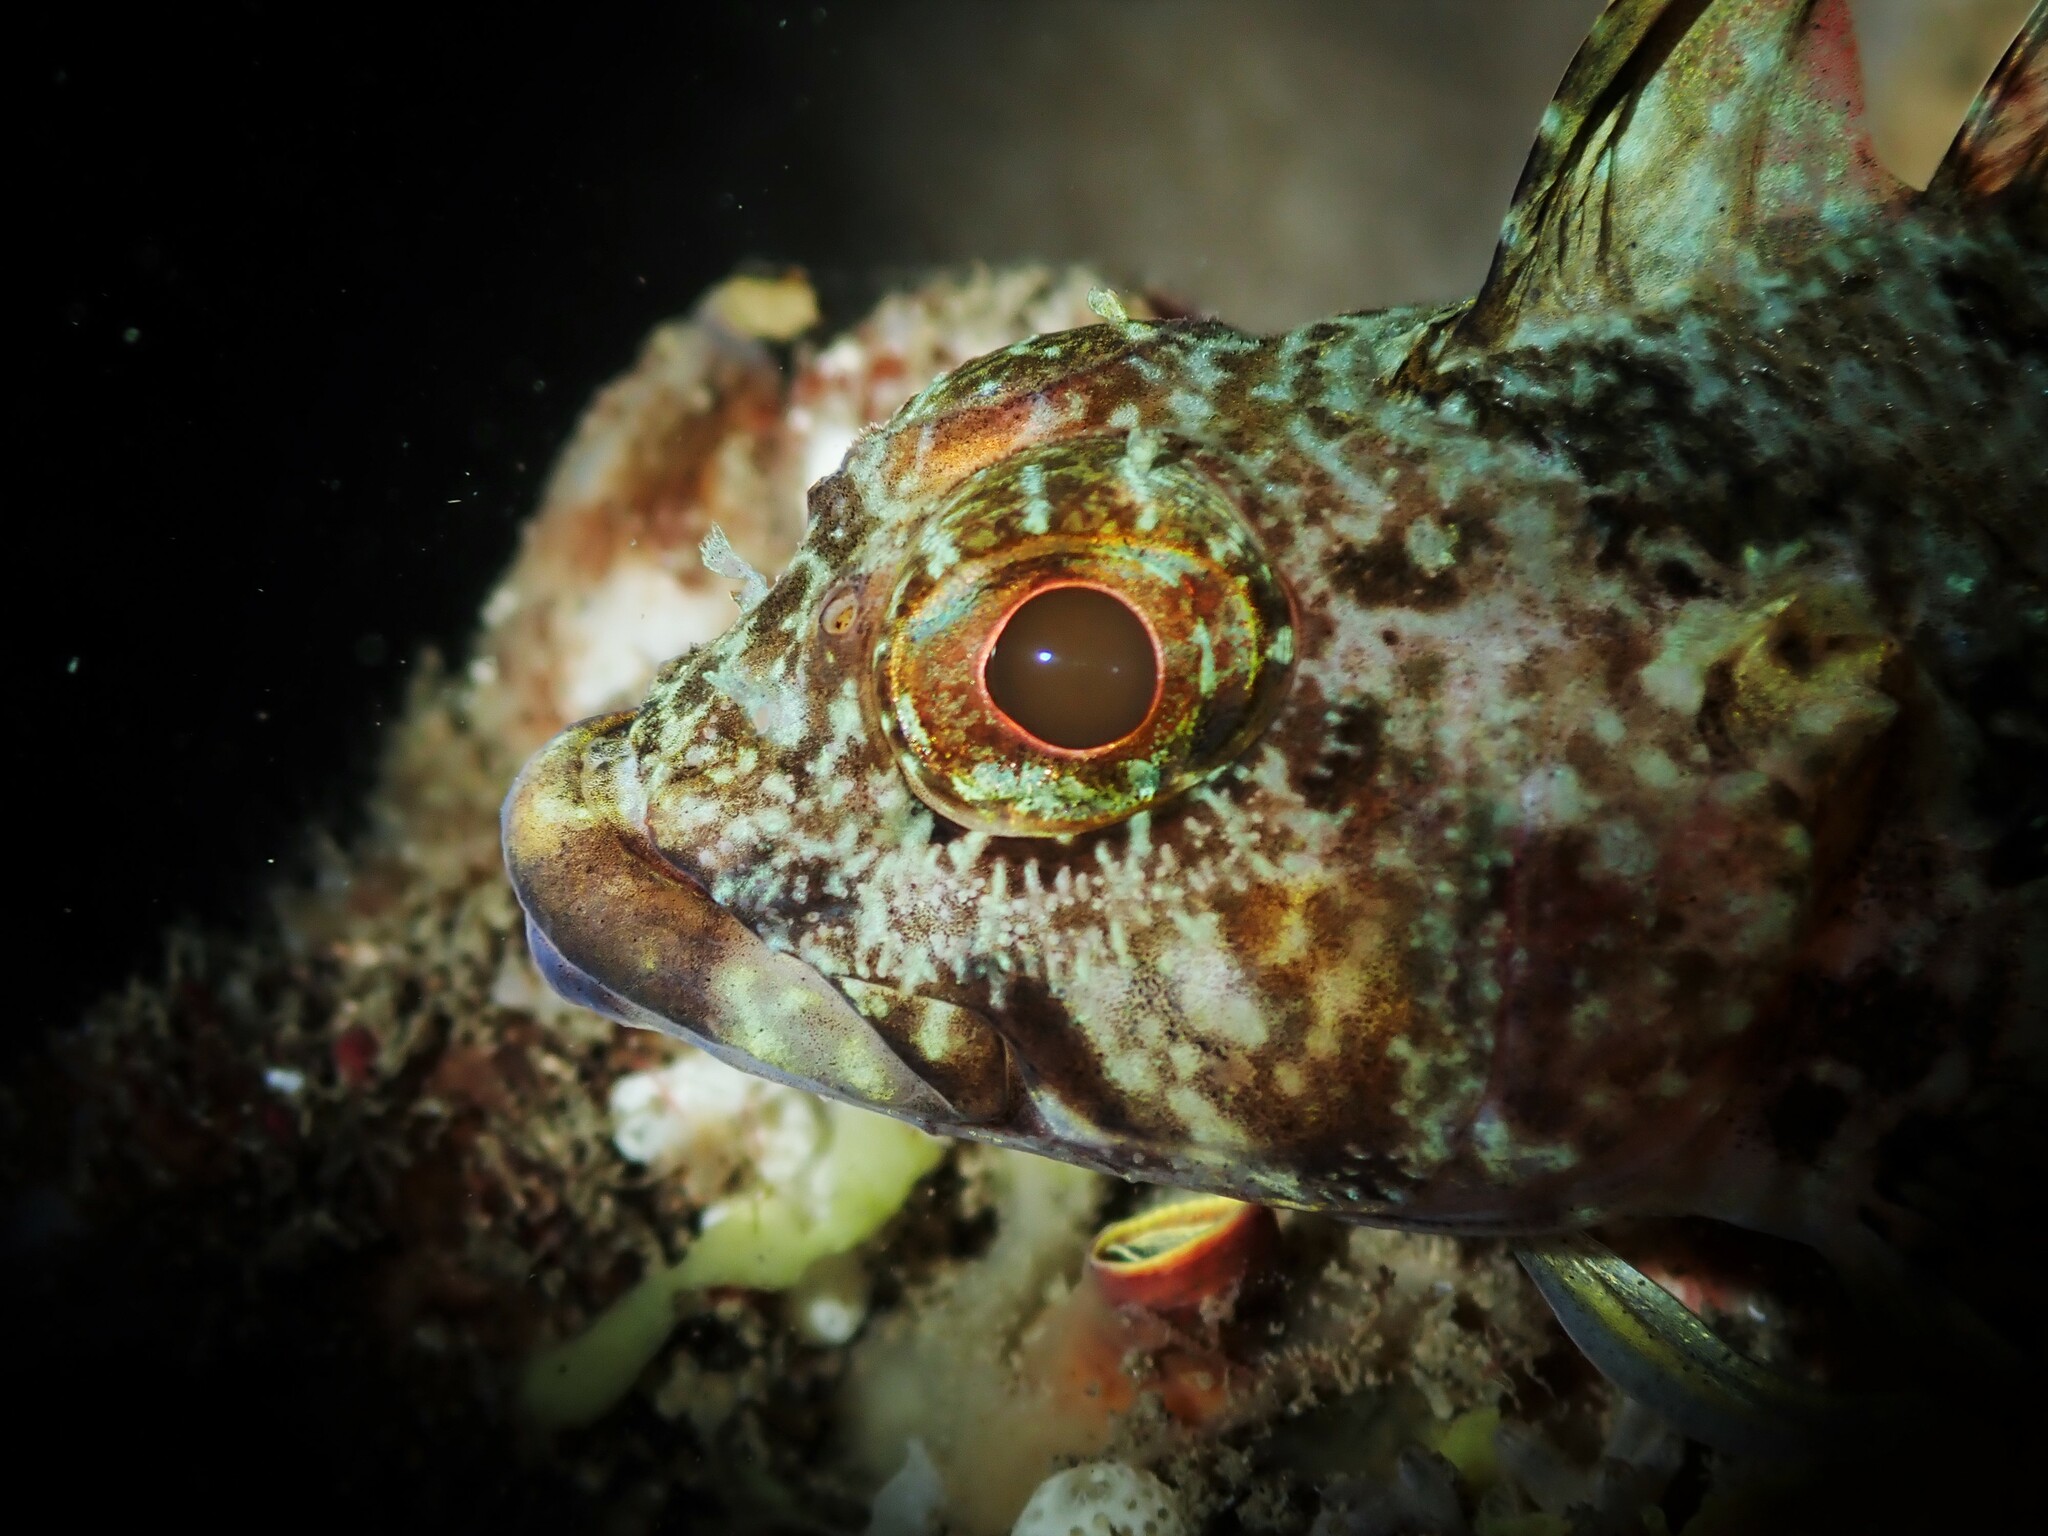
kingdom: Animalia
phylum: Chordata
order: Perciformes
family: Tripterygiidae
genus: Karalepis
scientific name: Karalepis stewarti
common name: Scaly headed triplefin
